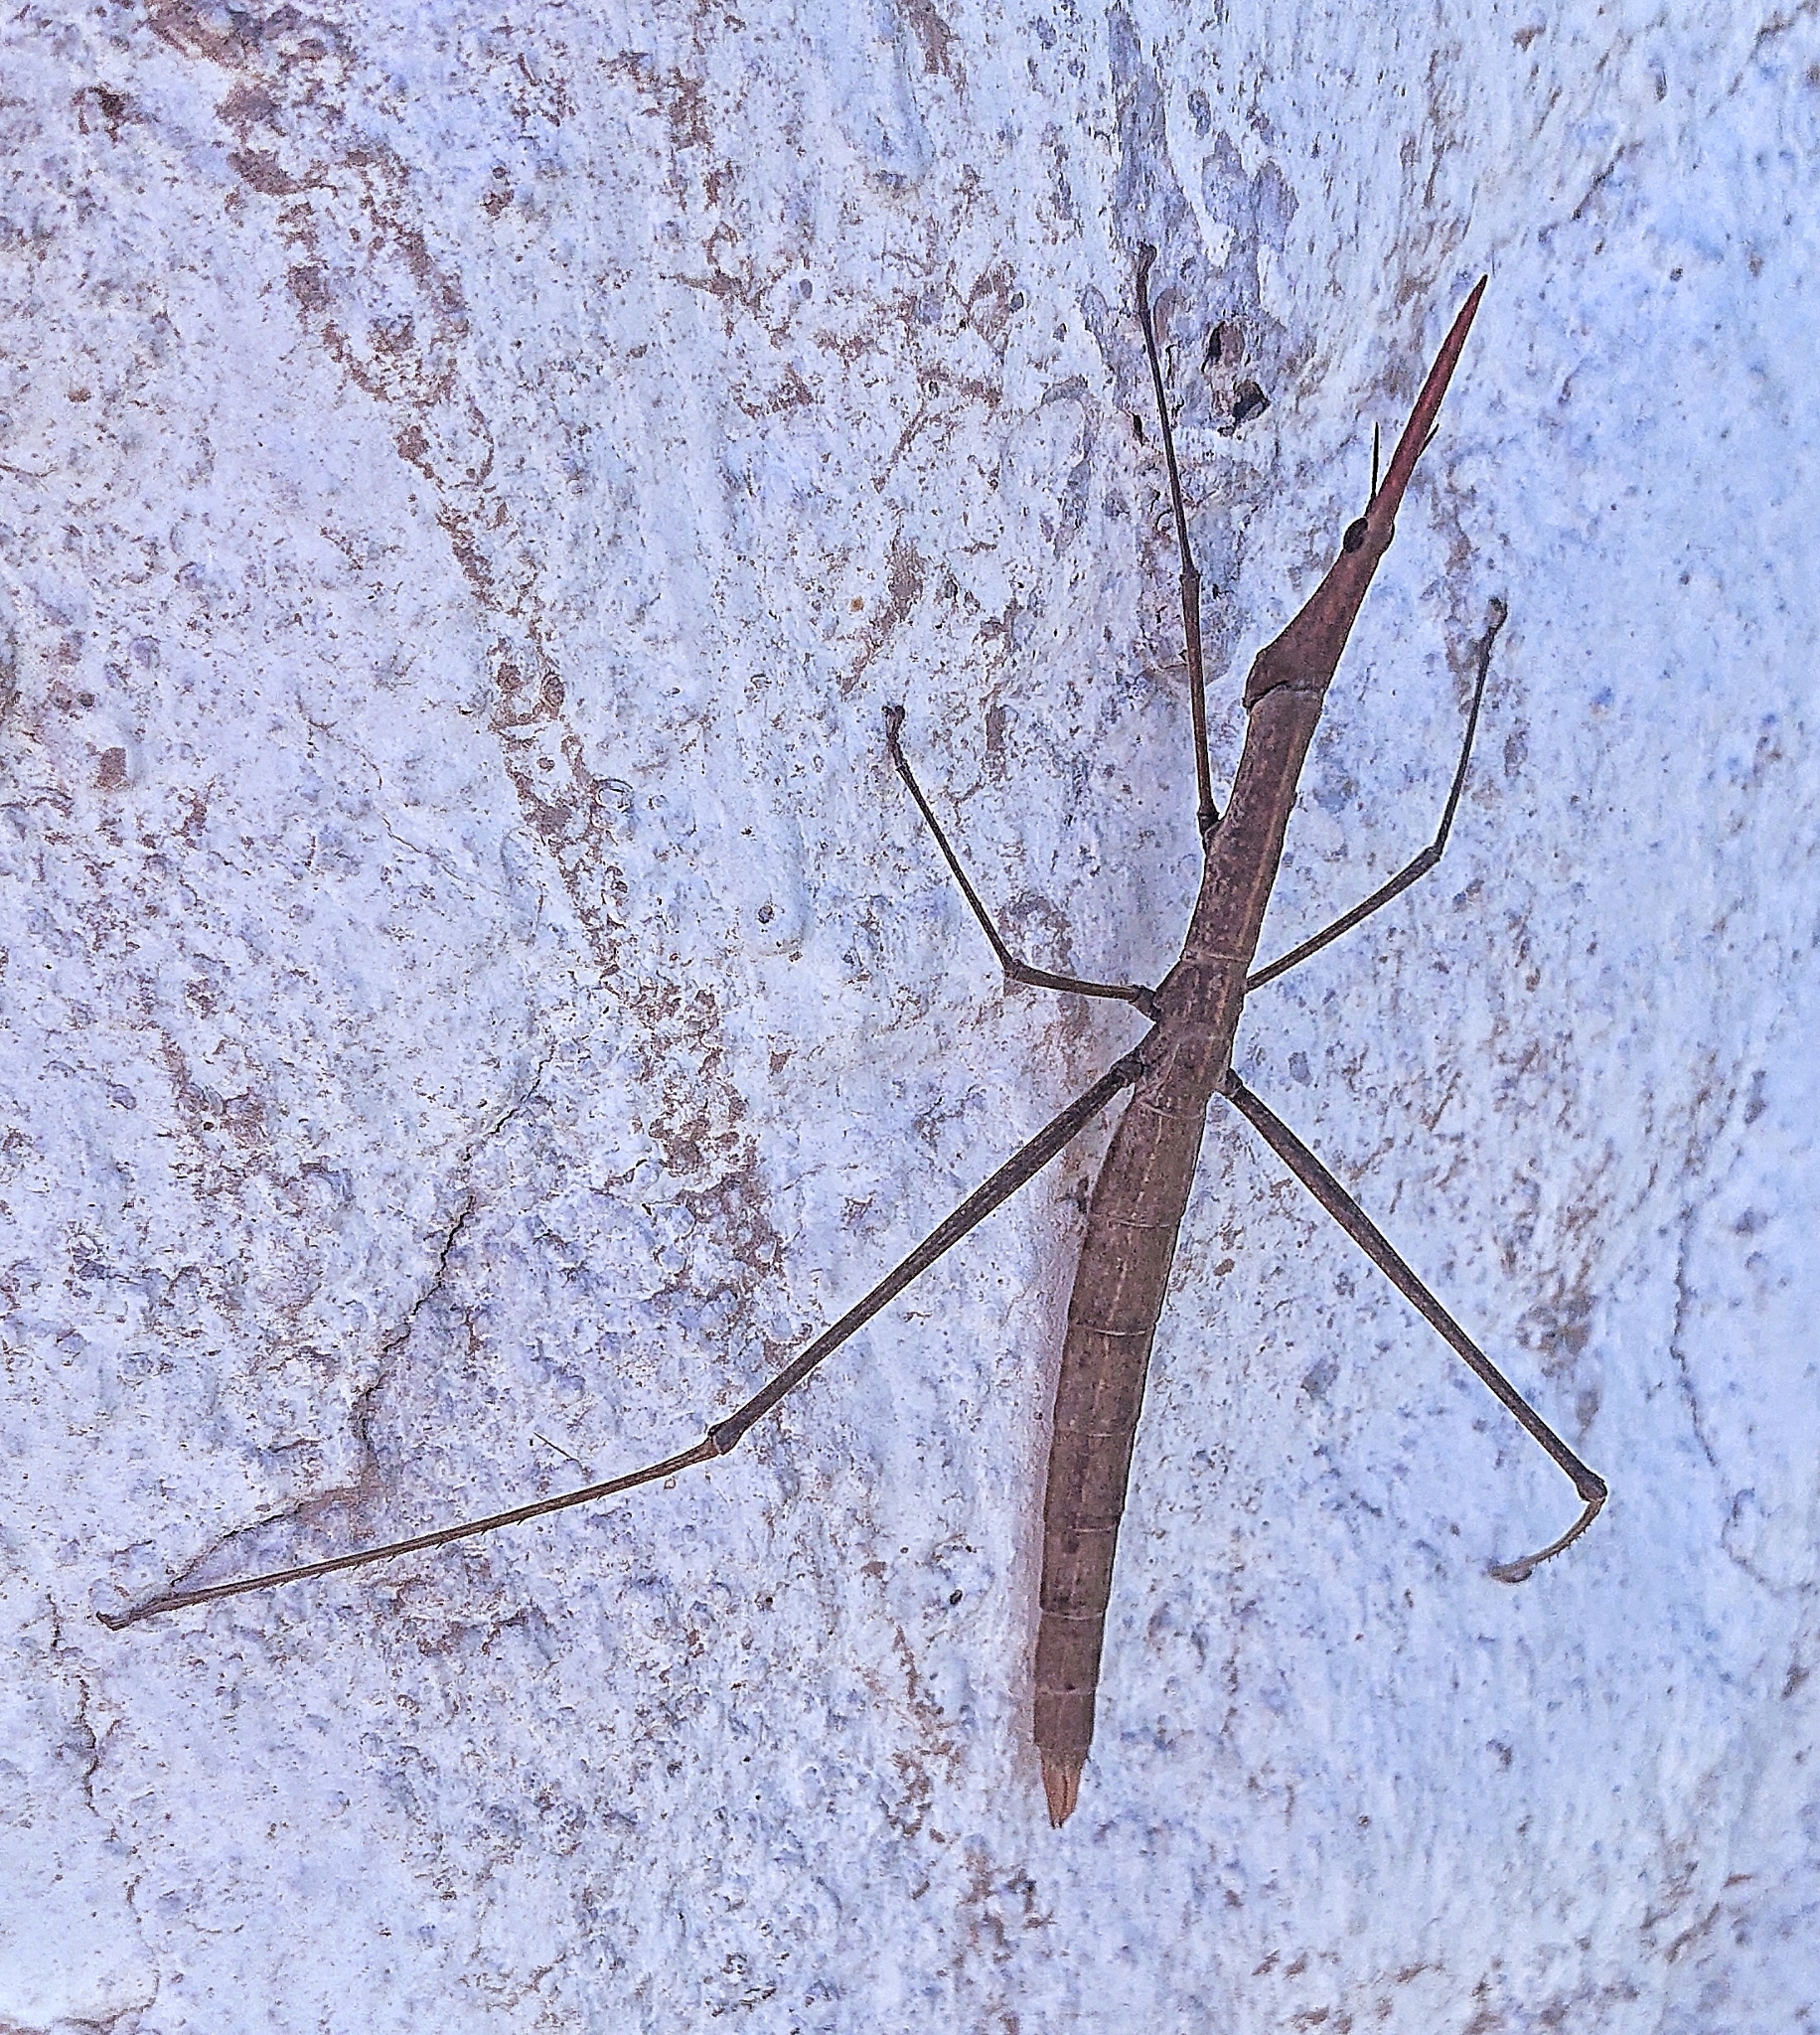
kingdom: Animalia
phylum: Arthropoda
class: Insecta
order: Orthoptera
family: Proscopiidae
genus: Microcoema
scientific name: Microcoema acuminata
